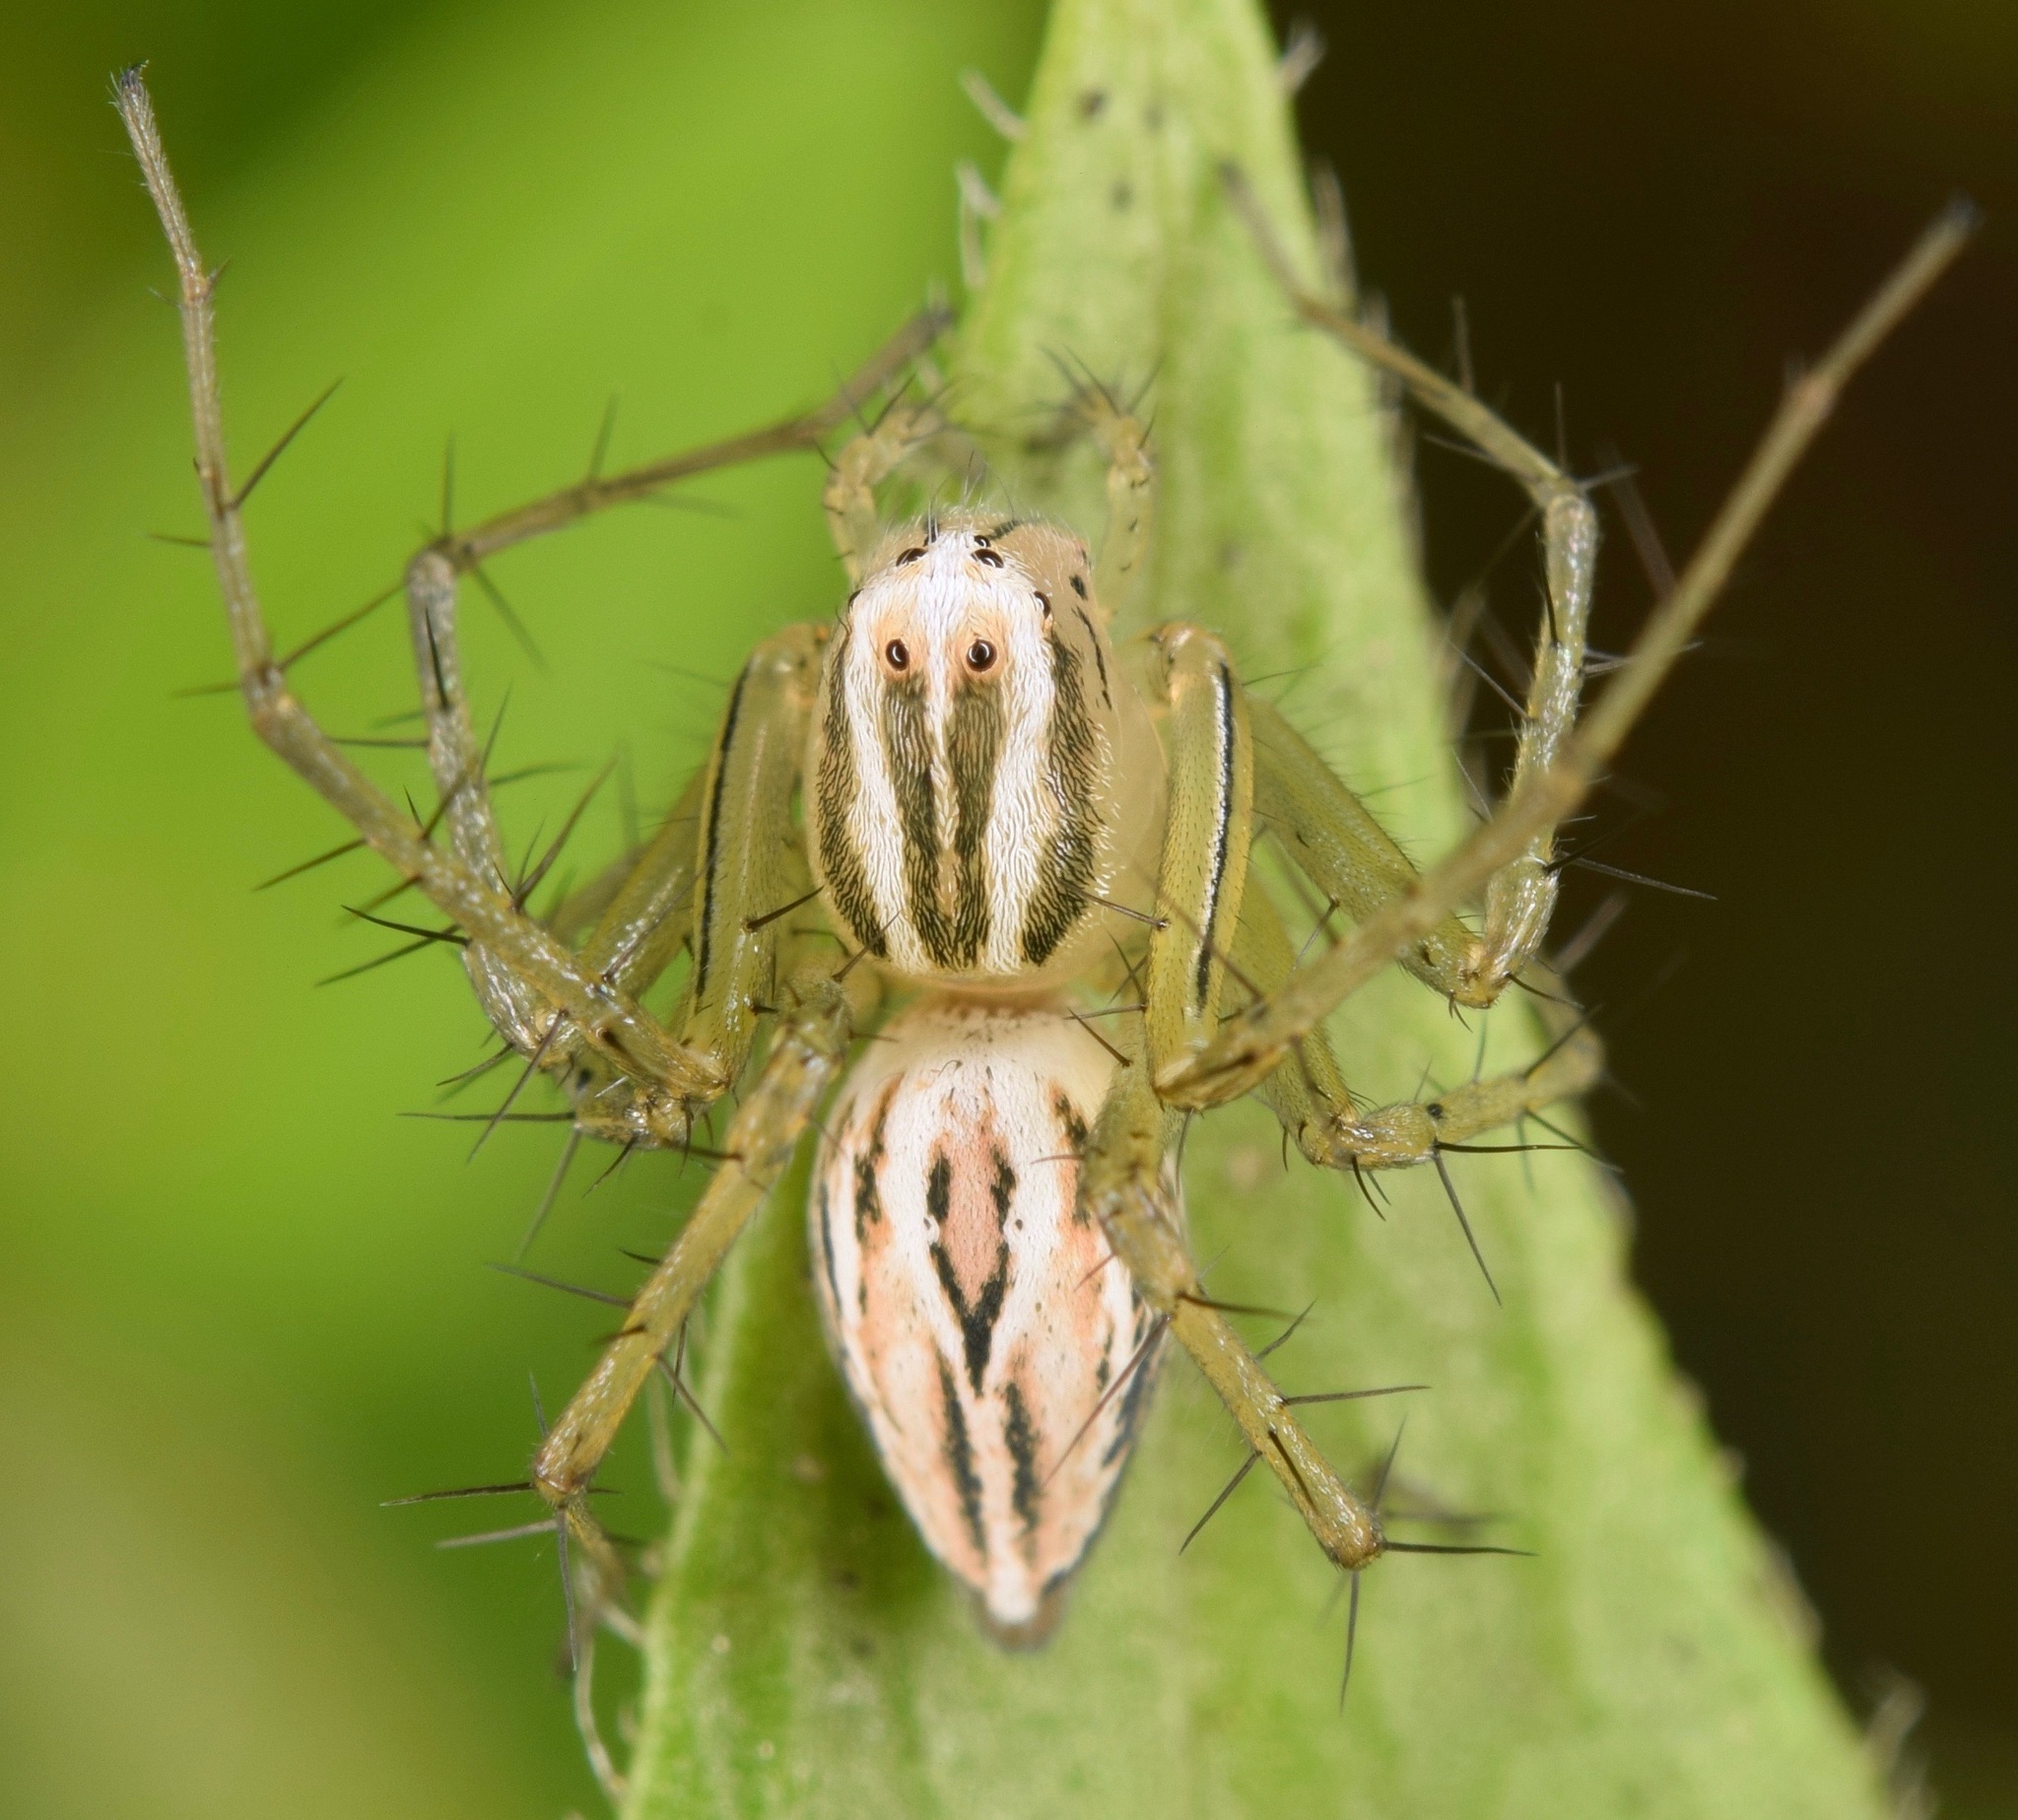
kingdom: Animalia
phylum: Arthropoda
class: Arachnida
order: Araneae
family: Oxyopidae
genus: Oxyopes
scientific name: Oxyopes salticus
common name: Lynx spiders
